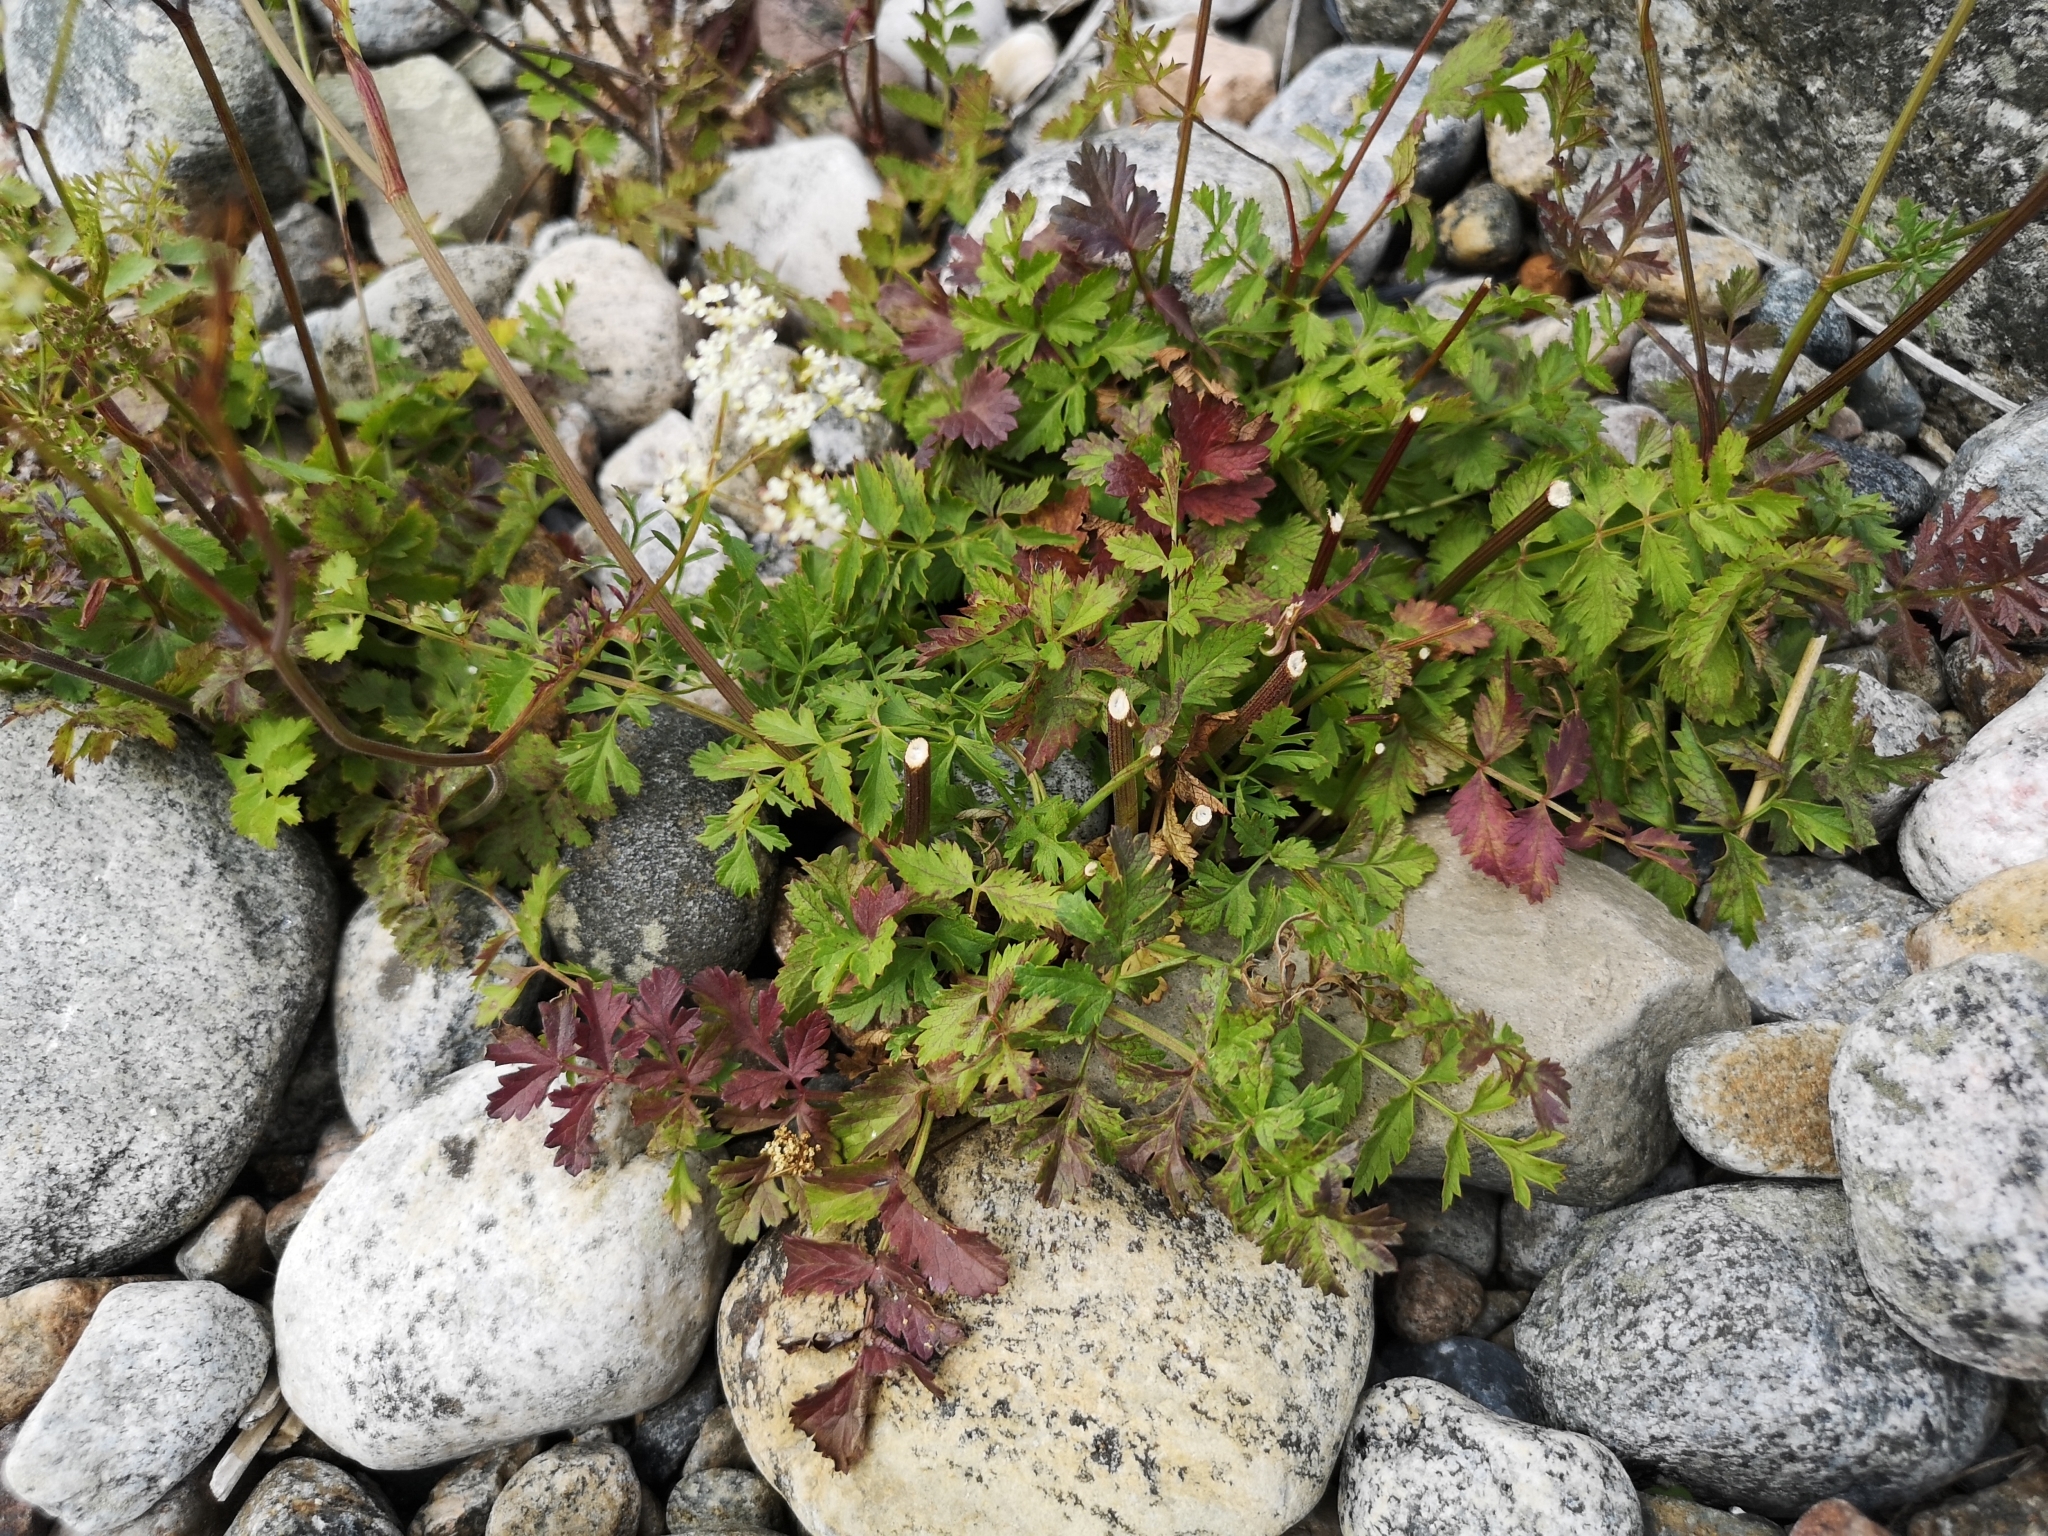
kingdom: Plantae
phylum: Tracheophyta
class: Magnoliopsida
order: Apiales
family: Apiaceae
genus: Pimpinella
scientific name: Pimpinella saxifraga
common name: Burnet-saxifrage
